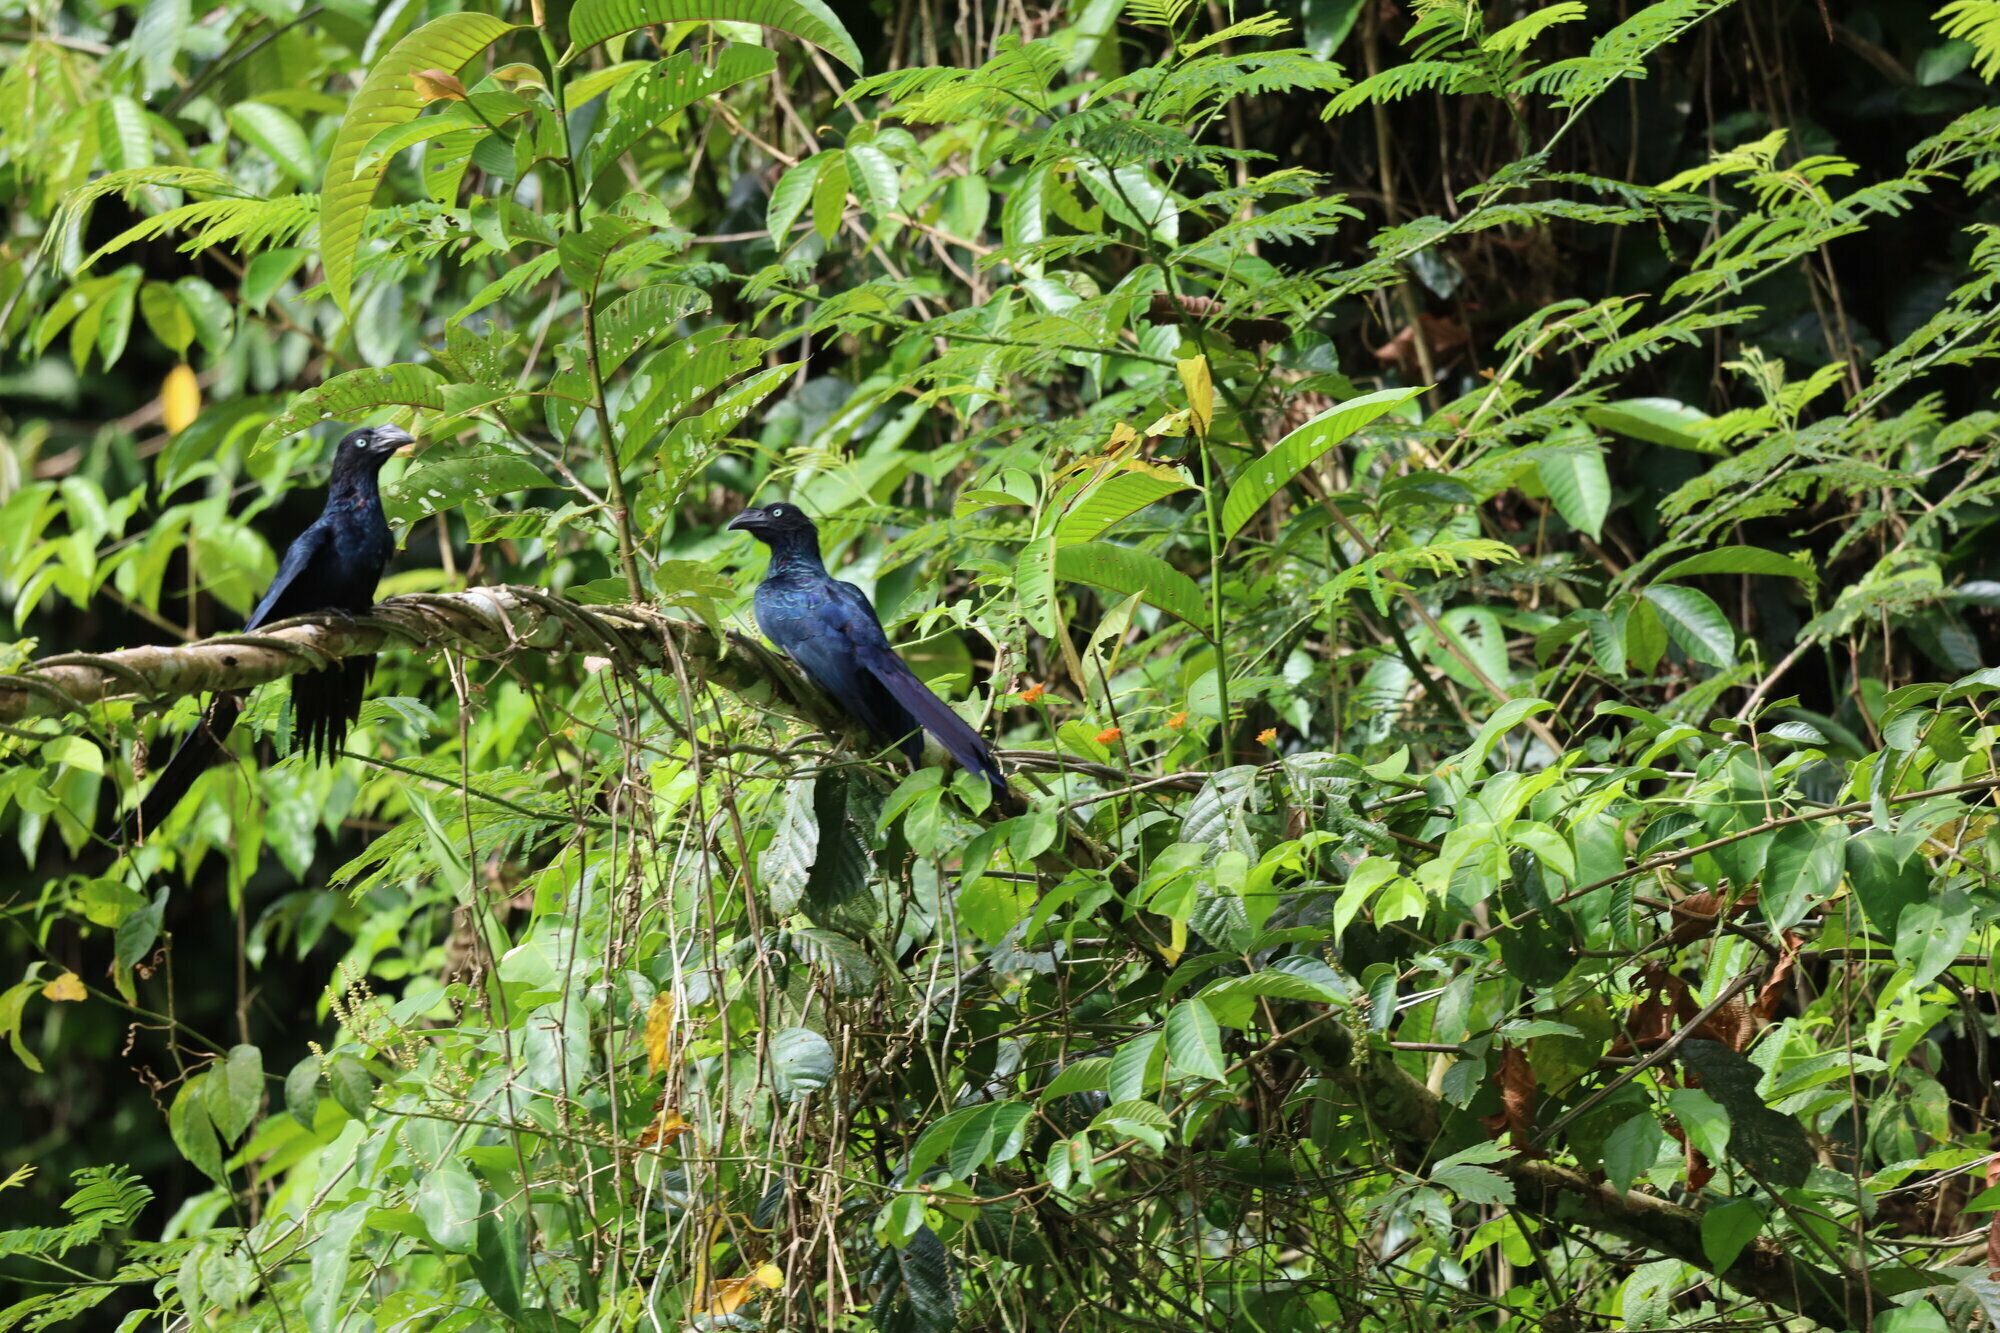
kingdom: Animalia
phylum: Chordata
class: Aves
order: Cuculiformes
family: Cuculidae
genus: Crotophaga
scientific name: Crotophaga major
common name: Greater ani
